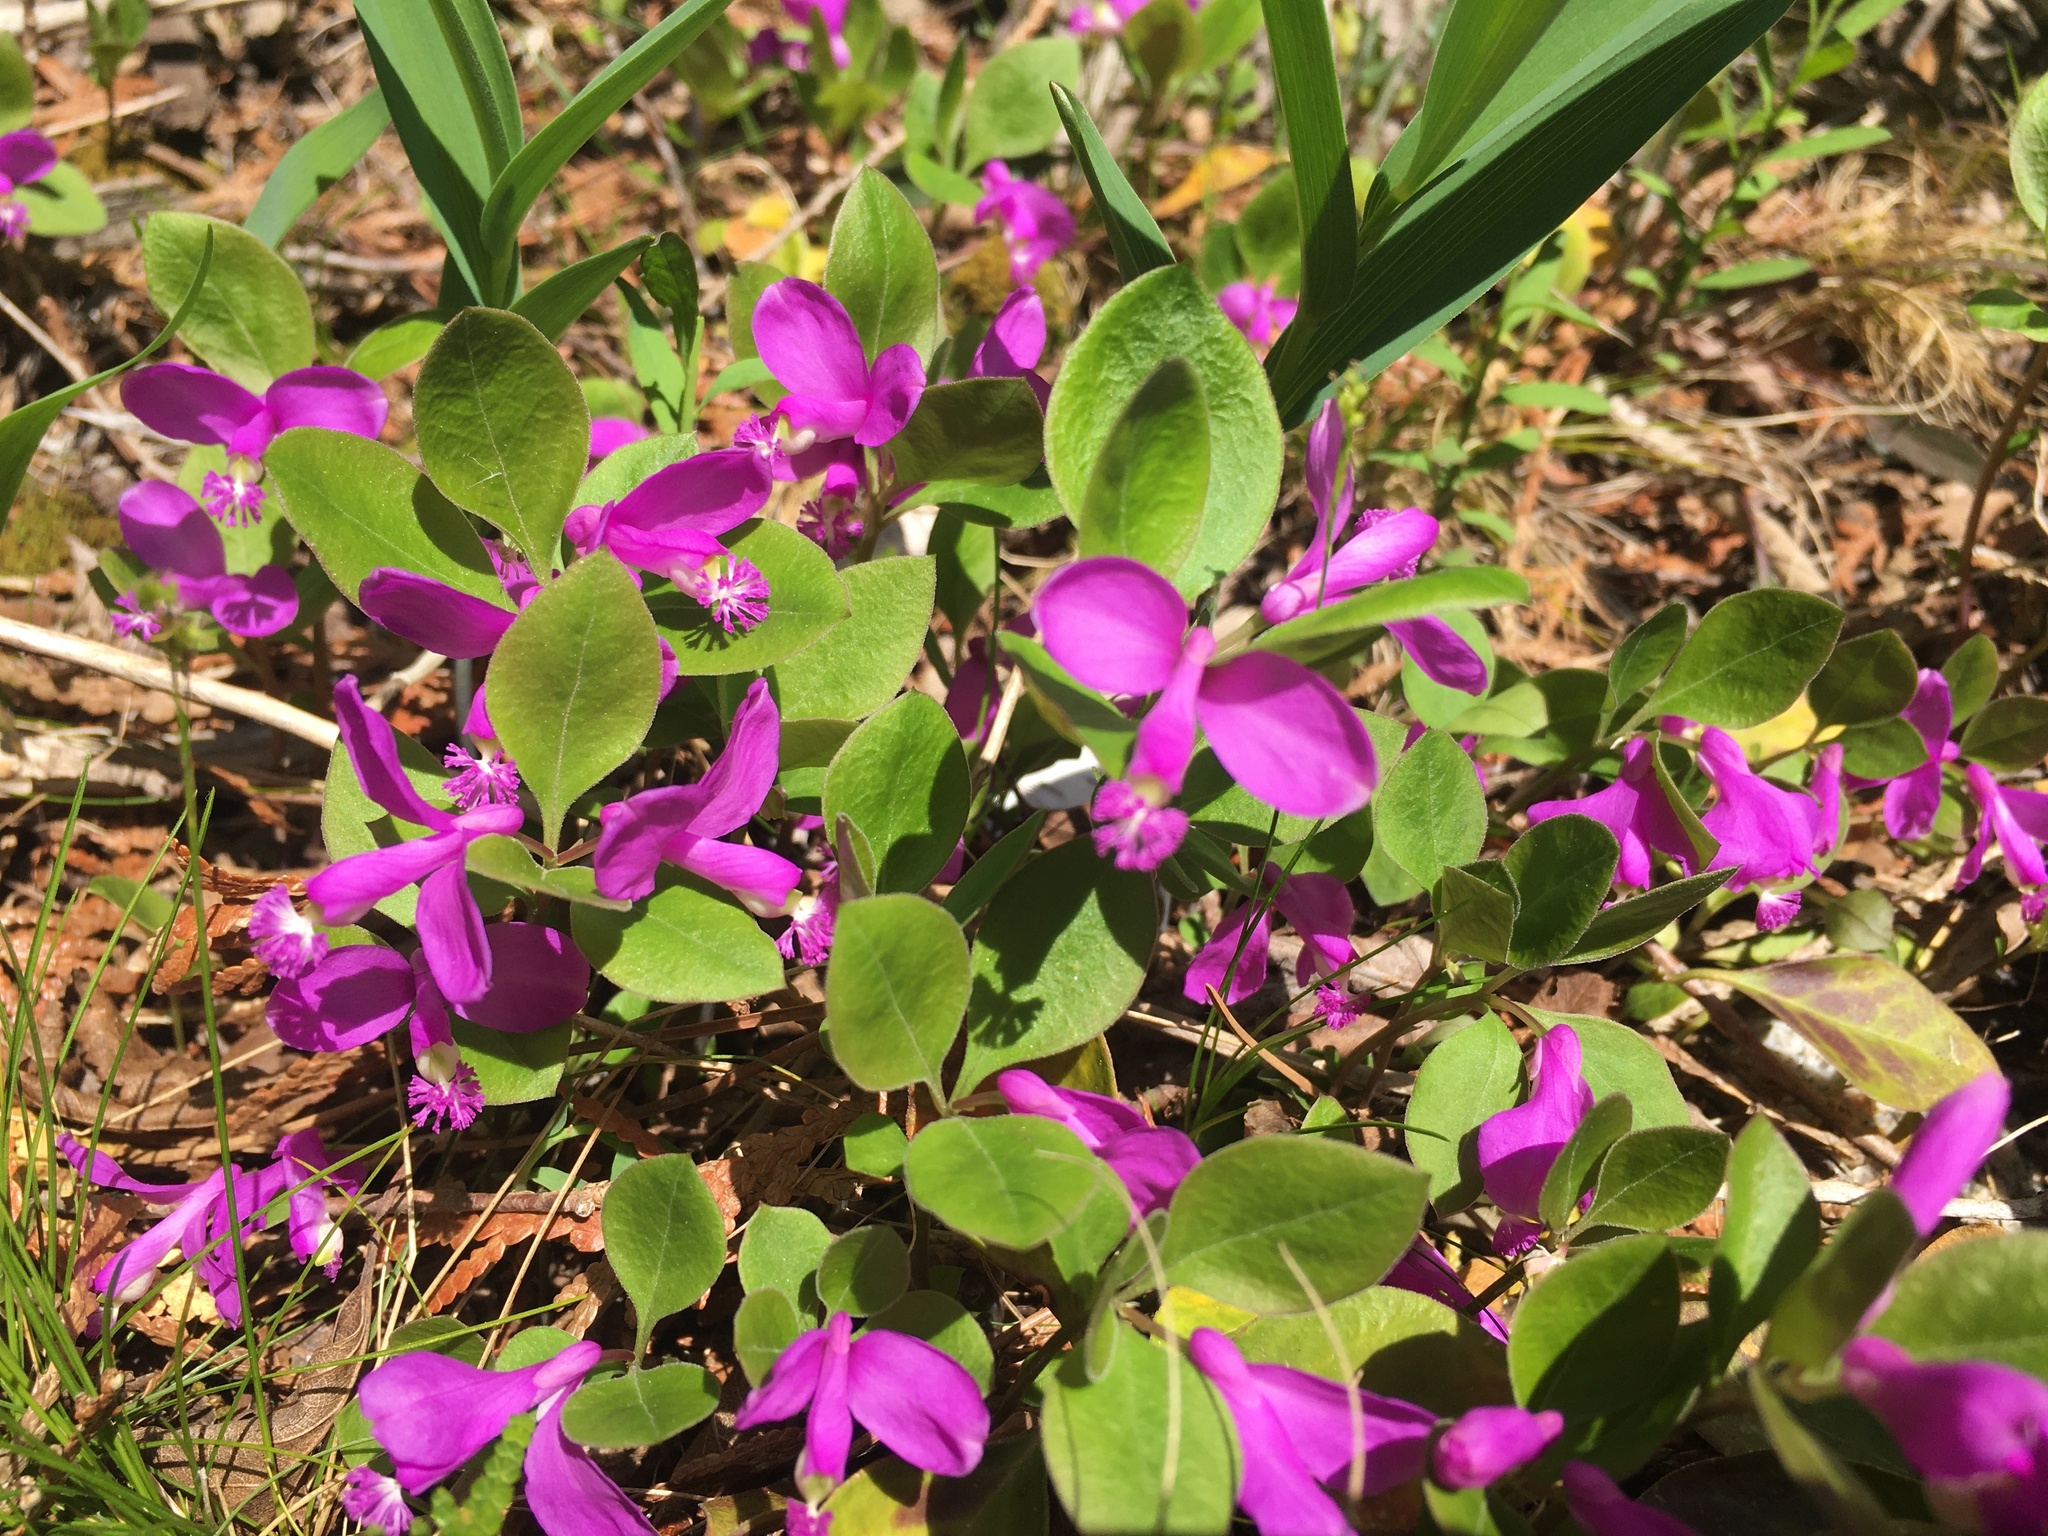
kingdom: Plantae
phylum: Tracheophyta
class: Magnoliopsida
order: Fabales
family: Polygalaceae
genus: Polygaloides
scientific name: Polygaloides paucifolia
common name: Bird-on-the-wing
